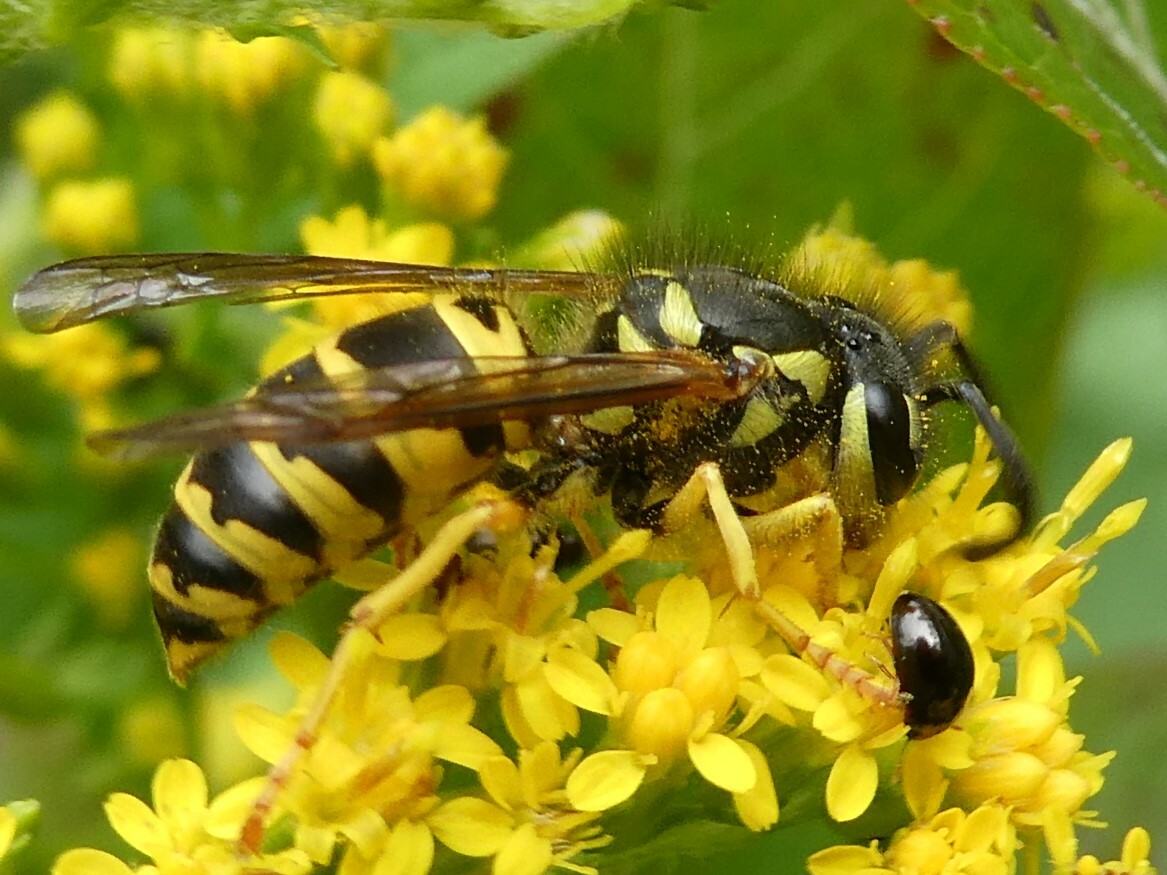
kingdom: Animalia
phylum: Arthropoda
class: Insecta
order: Hymenoptera
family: Vespidae
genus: Vespula
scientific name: Vespula maculifrons
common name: Eastern yellowjacket
